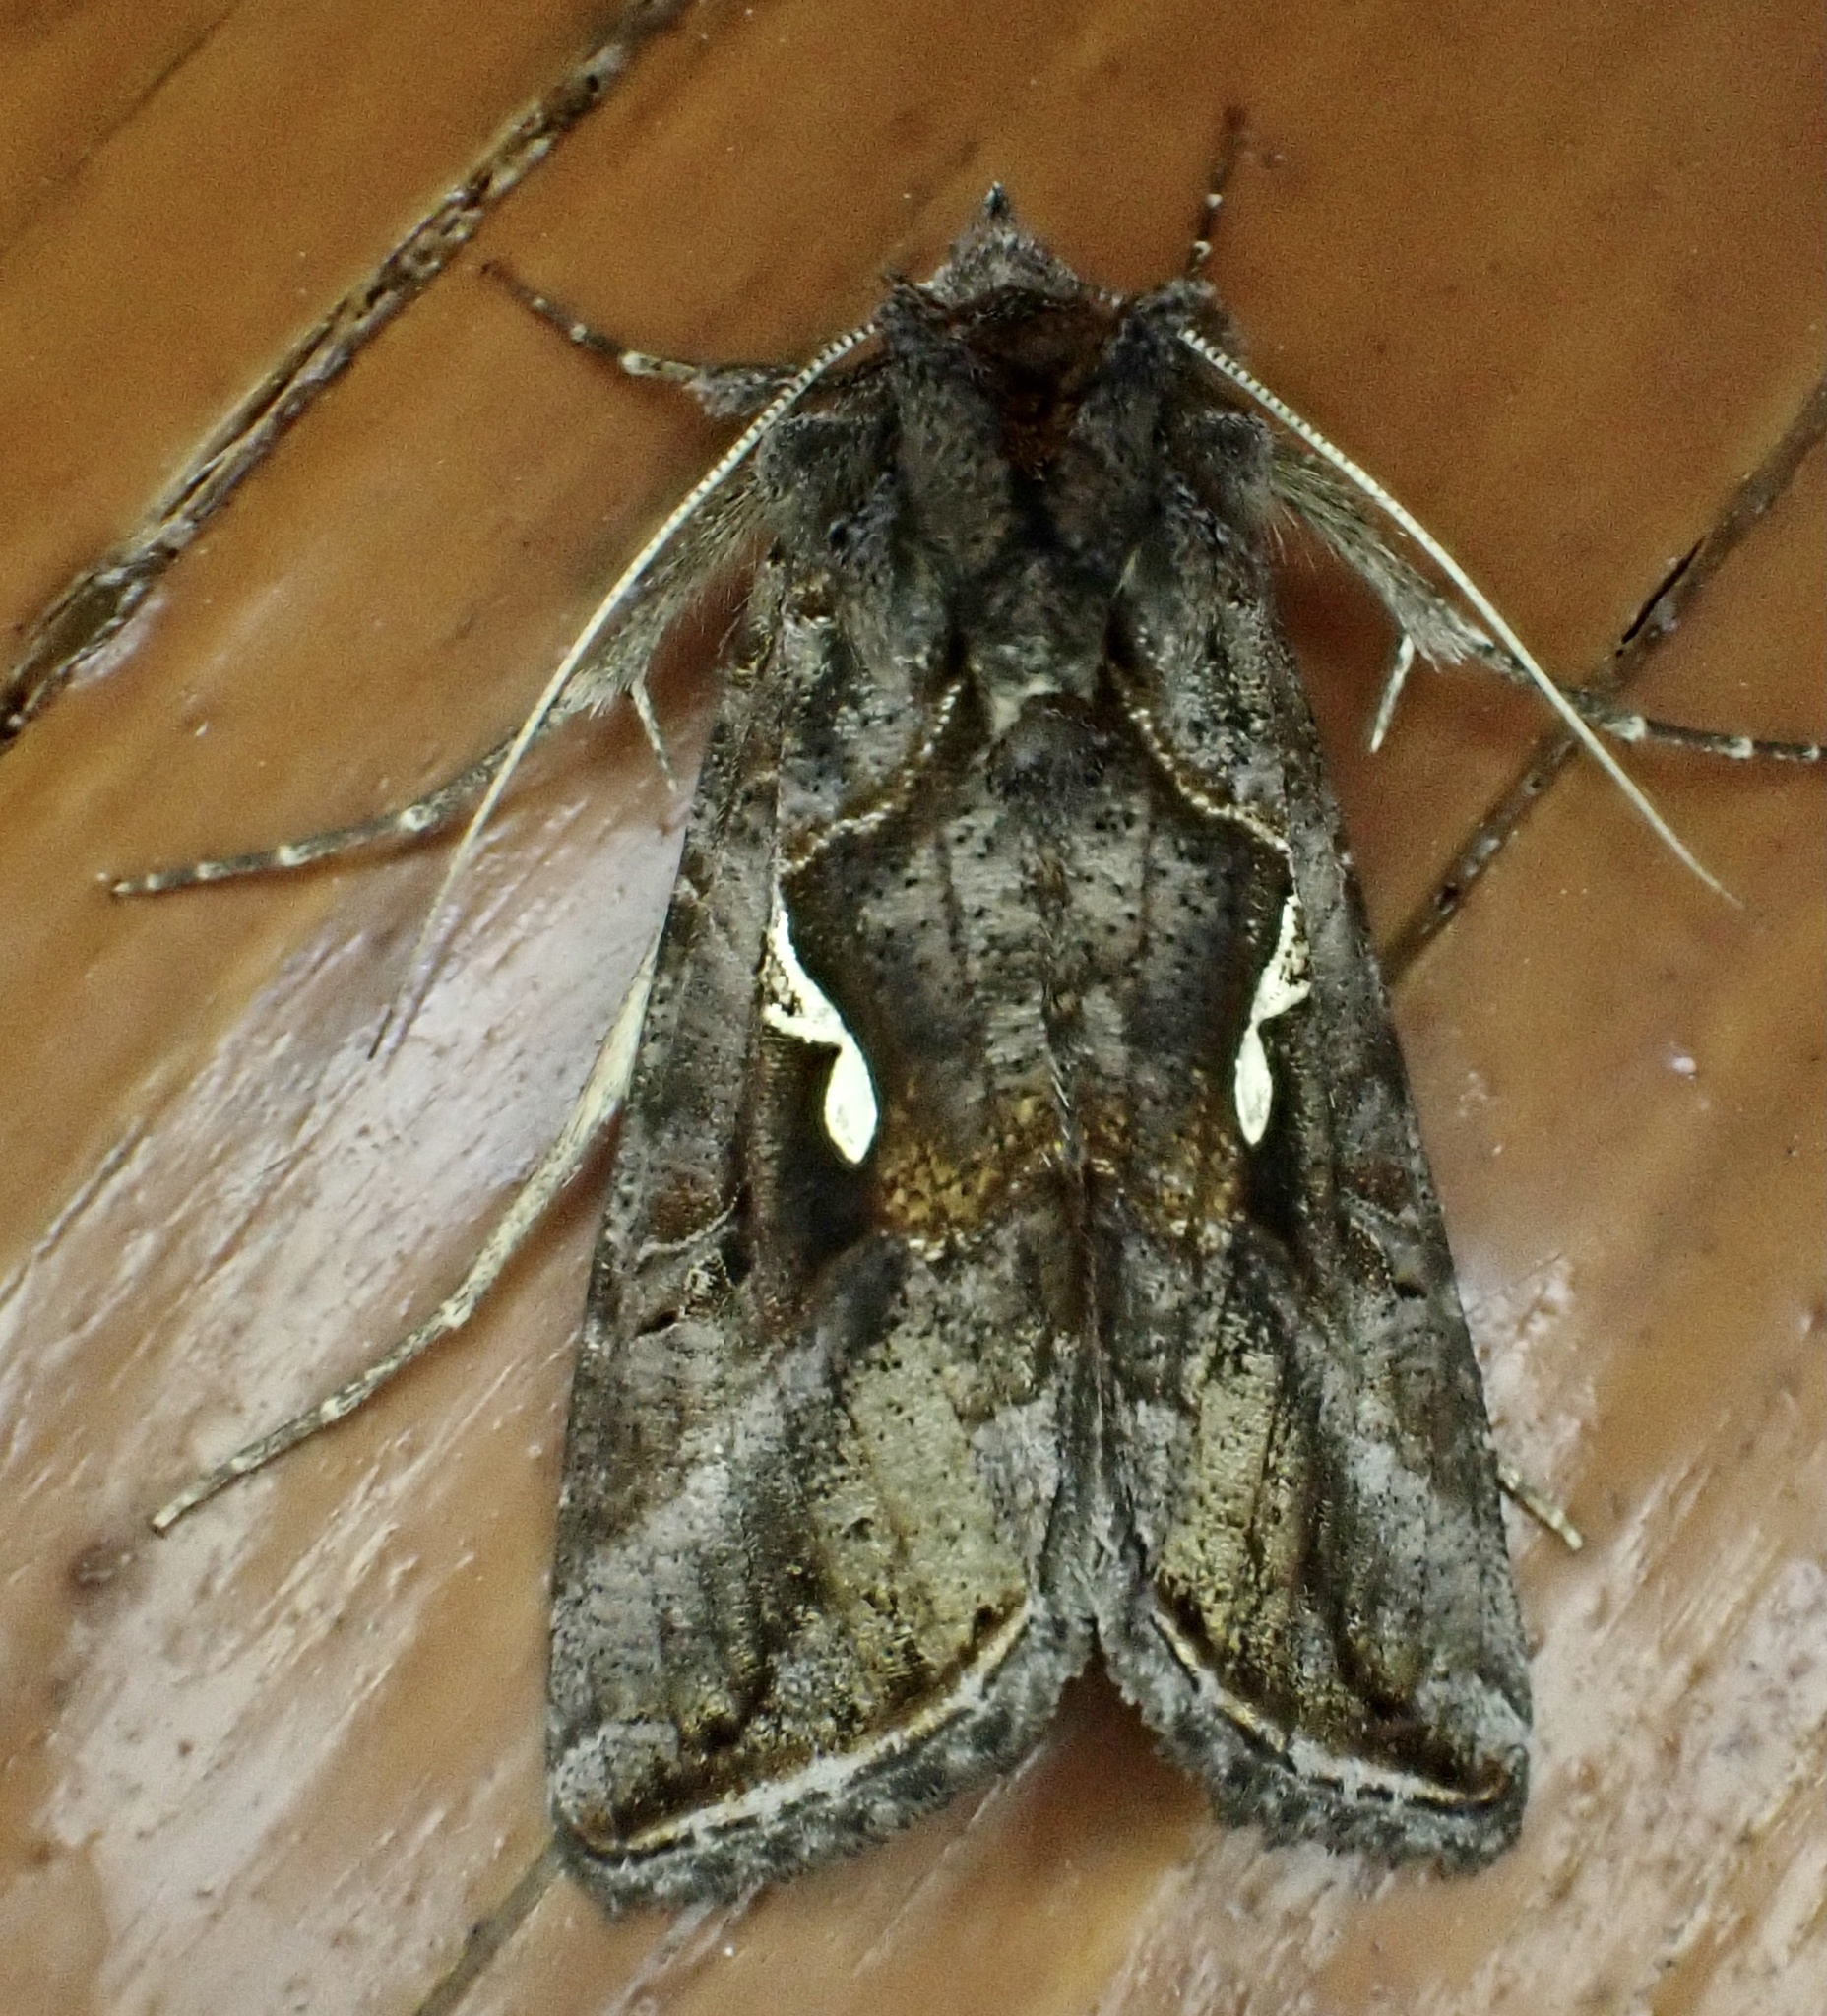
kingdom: Animalia
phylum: Arthropoda
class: Insecta
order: Lepidoptera
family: Noctuidae
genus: Autographa
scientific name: Autographa precationis
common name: Common looper moth
